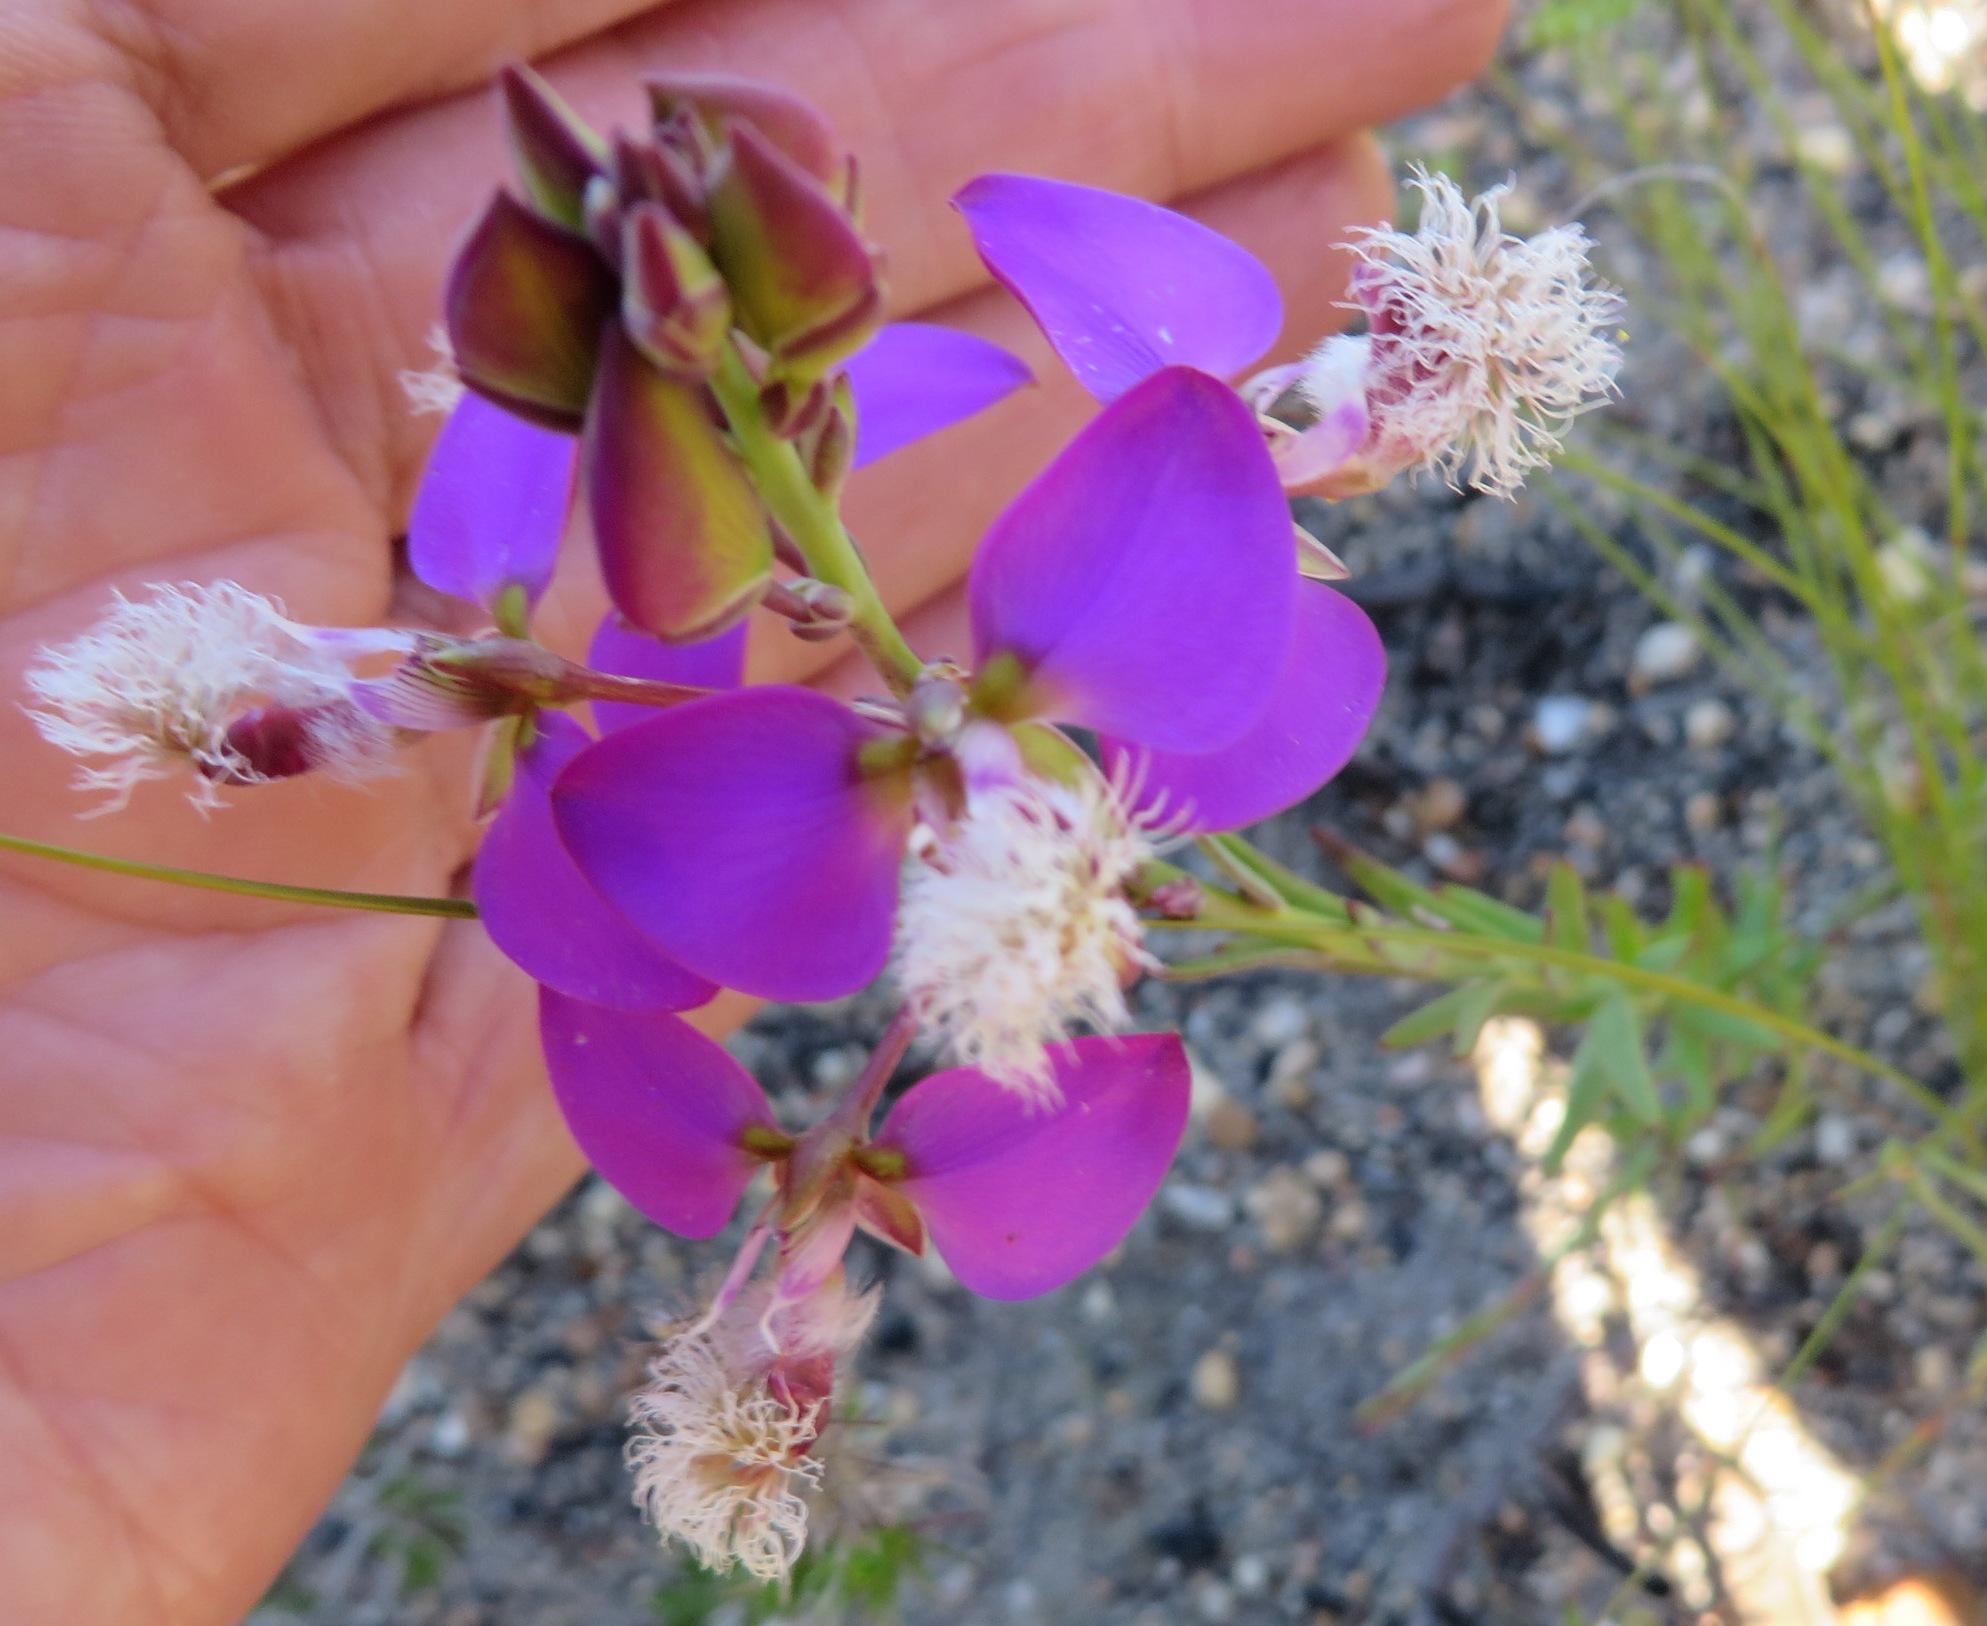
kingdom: Plantae
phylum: Tracheophyta
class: Magnoliopsida
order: Fabales
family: Polygalaceae
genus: Polygala
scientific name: Polygala bracteolata
